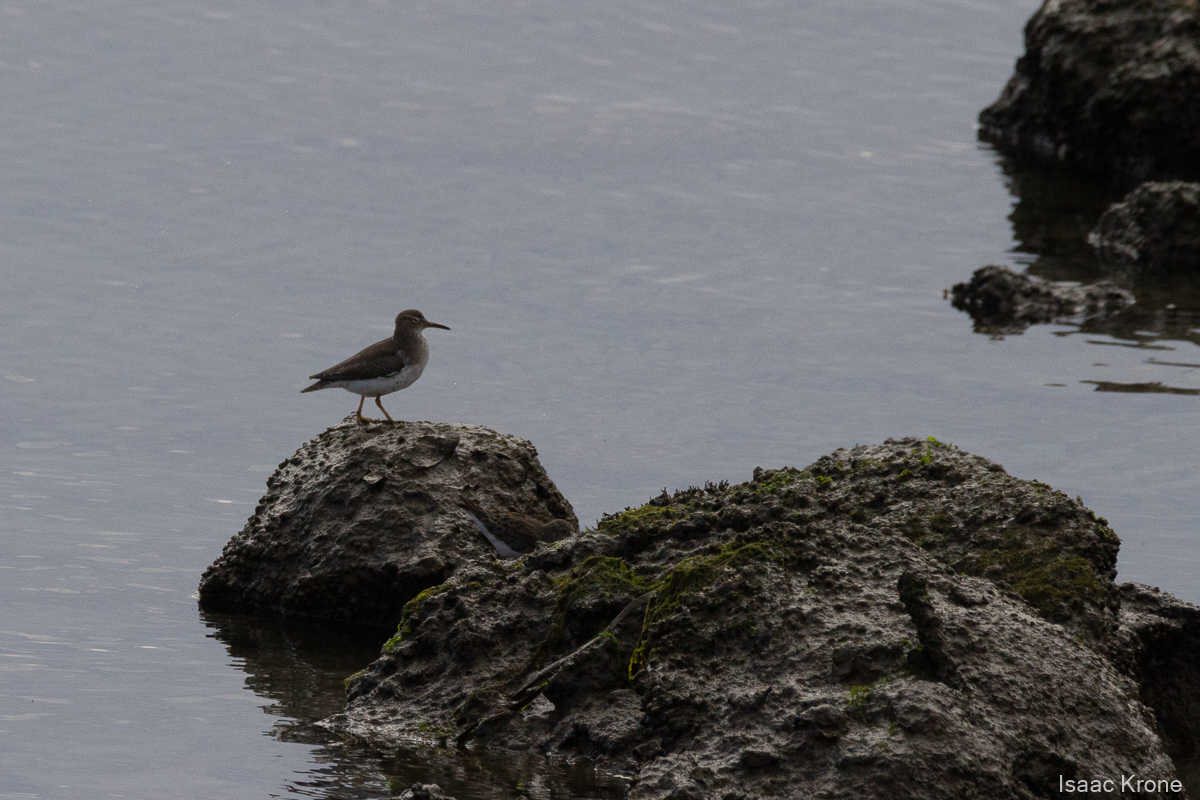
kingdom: Animalia
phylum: Chordata
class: Aves
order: Charadriiformes
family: Scolopacidae
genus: Actitis
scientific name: Actitis macularius
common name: Spotted sandpiper
